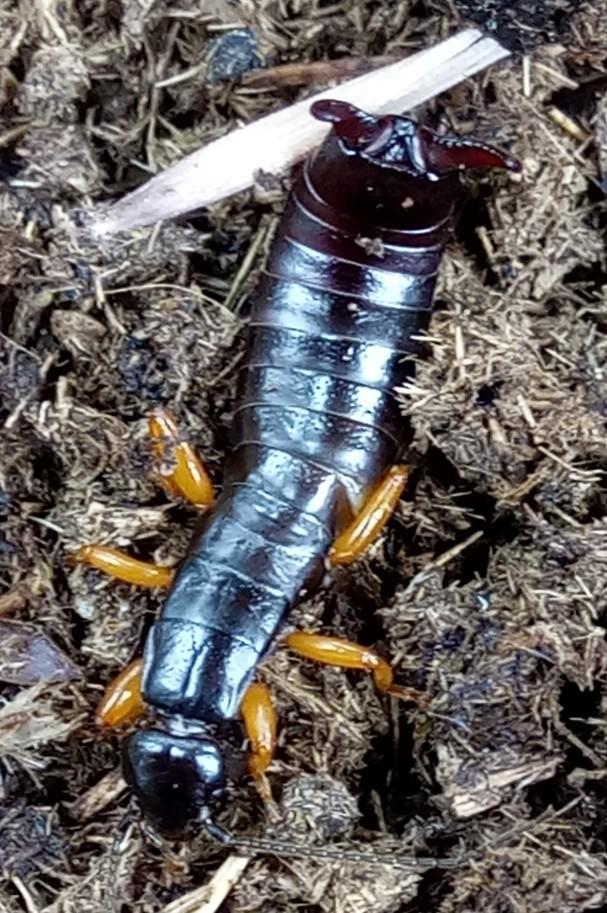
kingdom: Animalia
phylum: Arthropoda
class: Insecta
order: Dermaptera
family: Anisolabididae
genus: Aborolabis
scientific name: Aborolabis mordax
